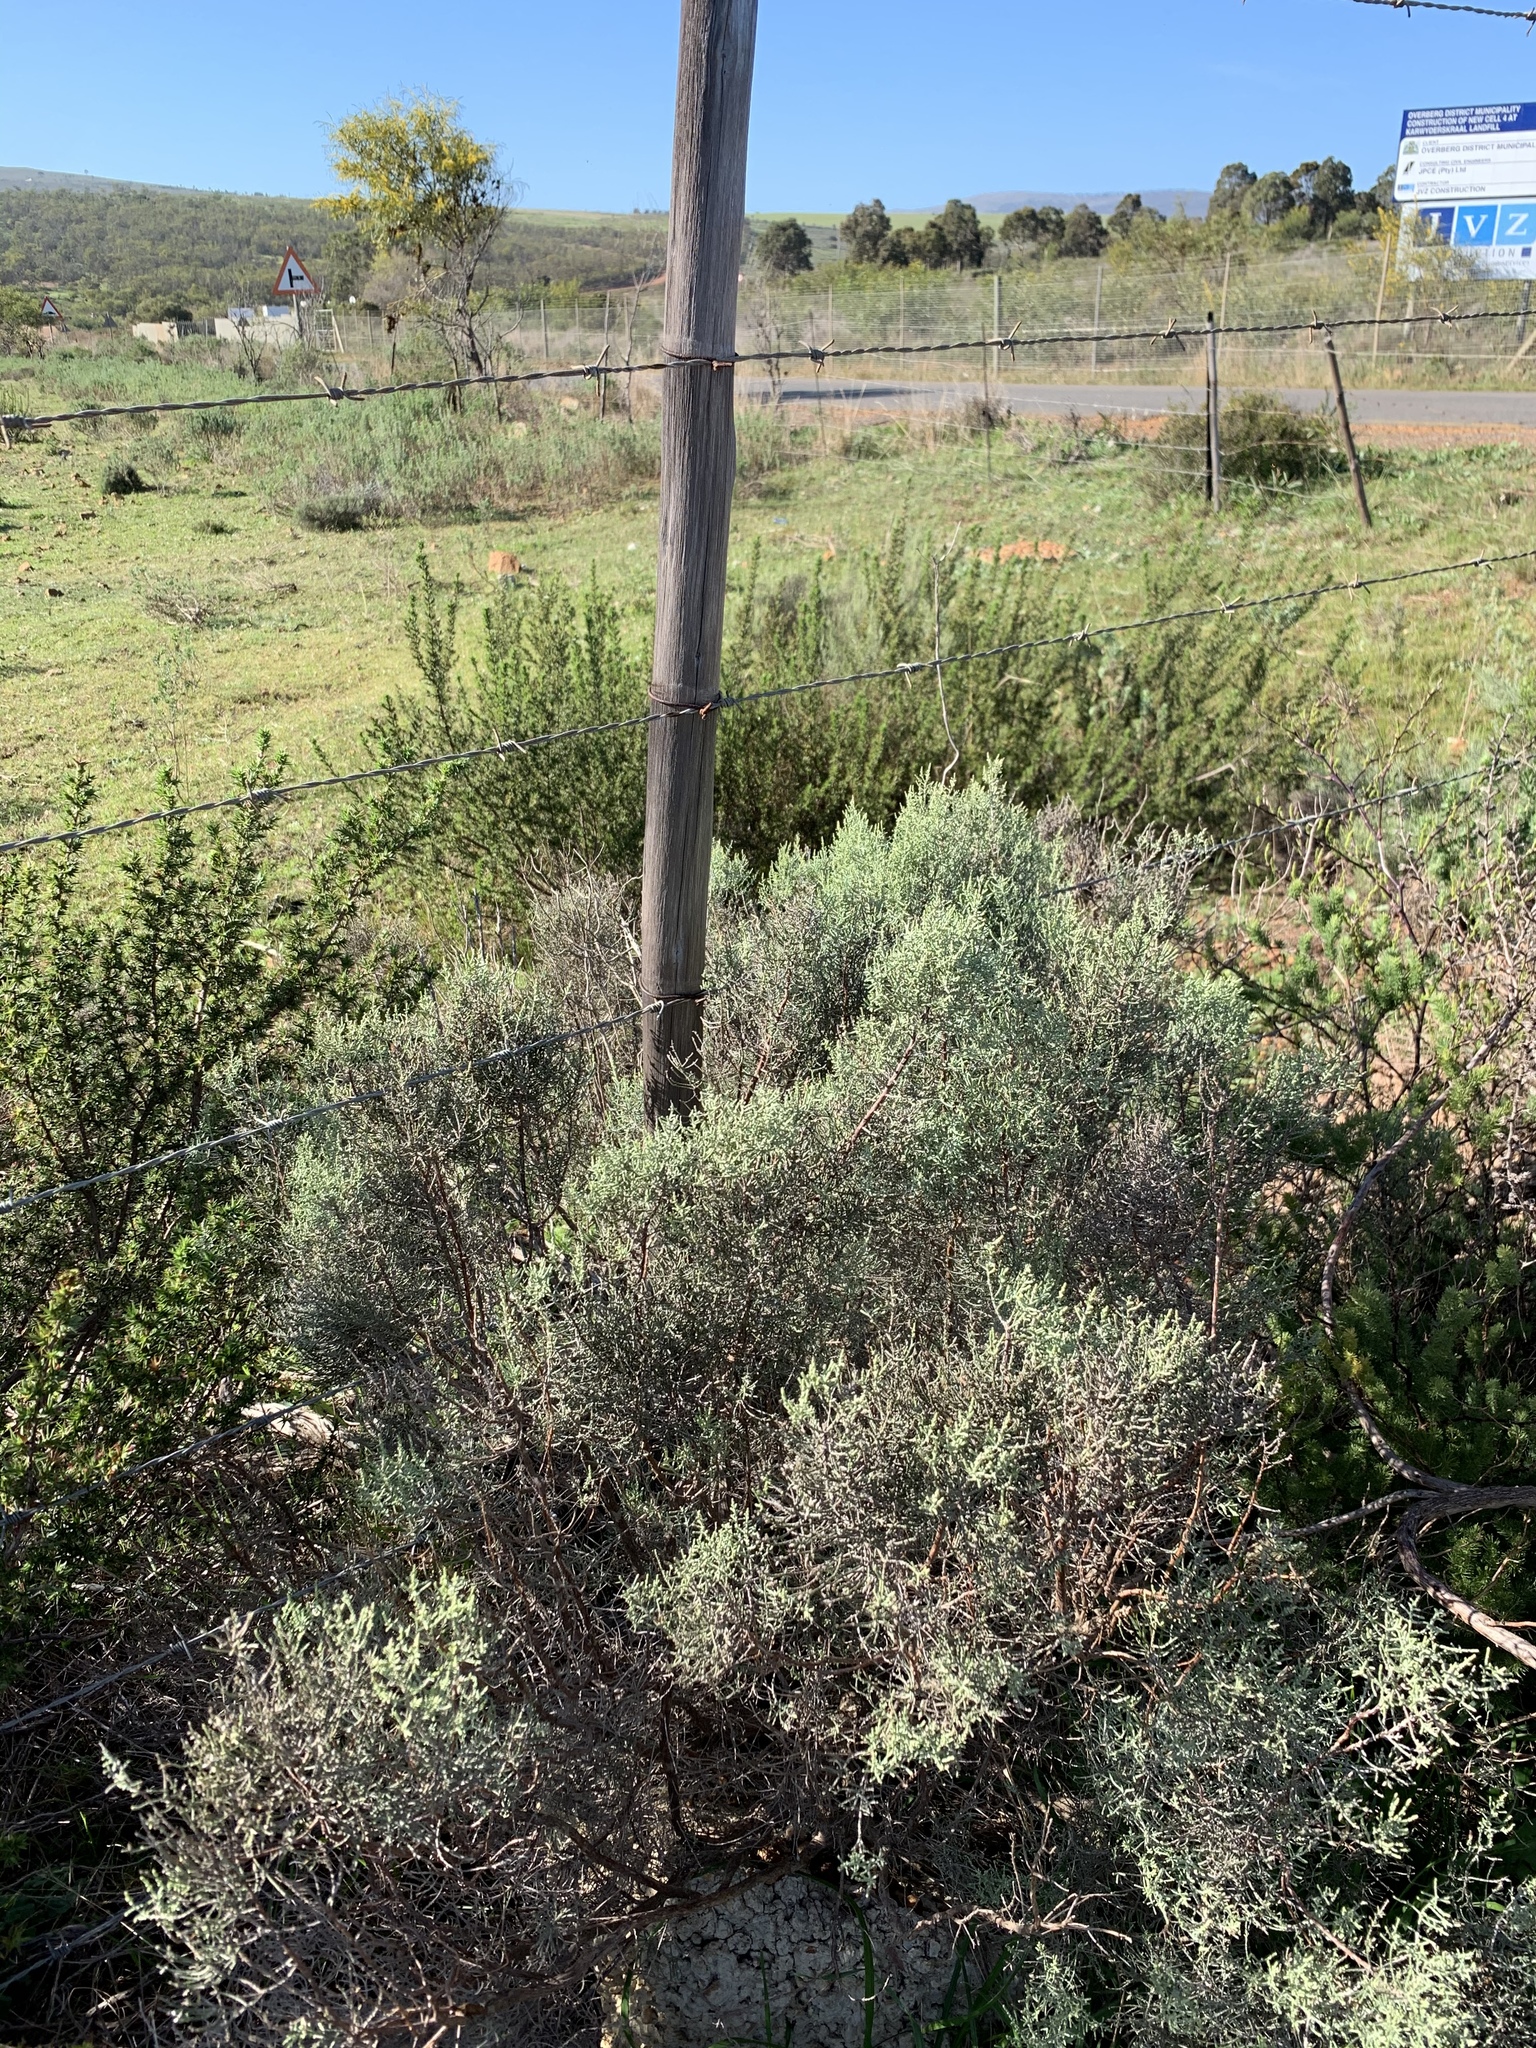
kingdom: Plantae
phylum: Tracheophyta
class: Magnoliopsida
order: Asterales
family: Asteraceae
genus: Dicerothamnus
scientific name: Dicerothamnus rhinocerotis
